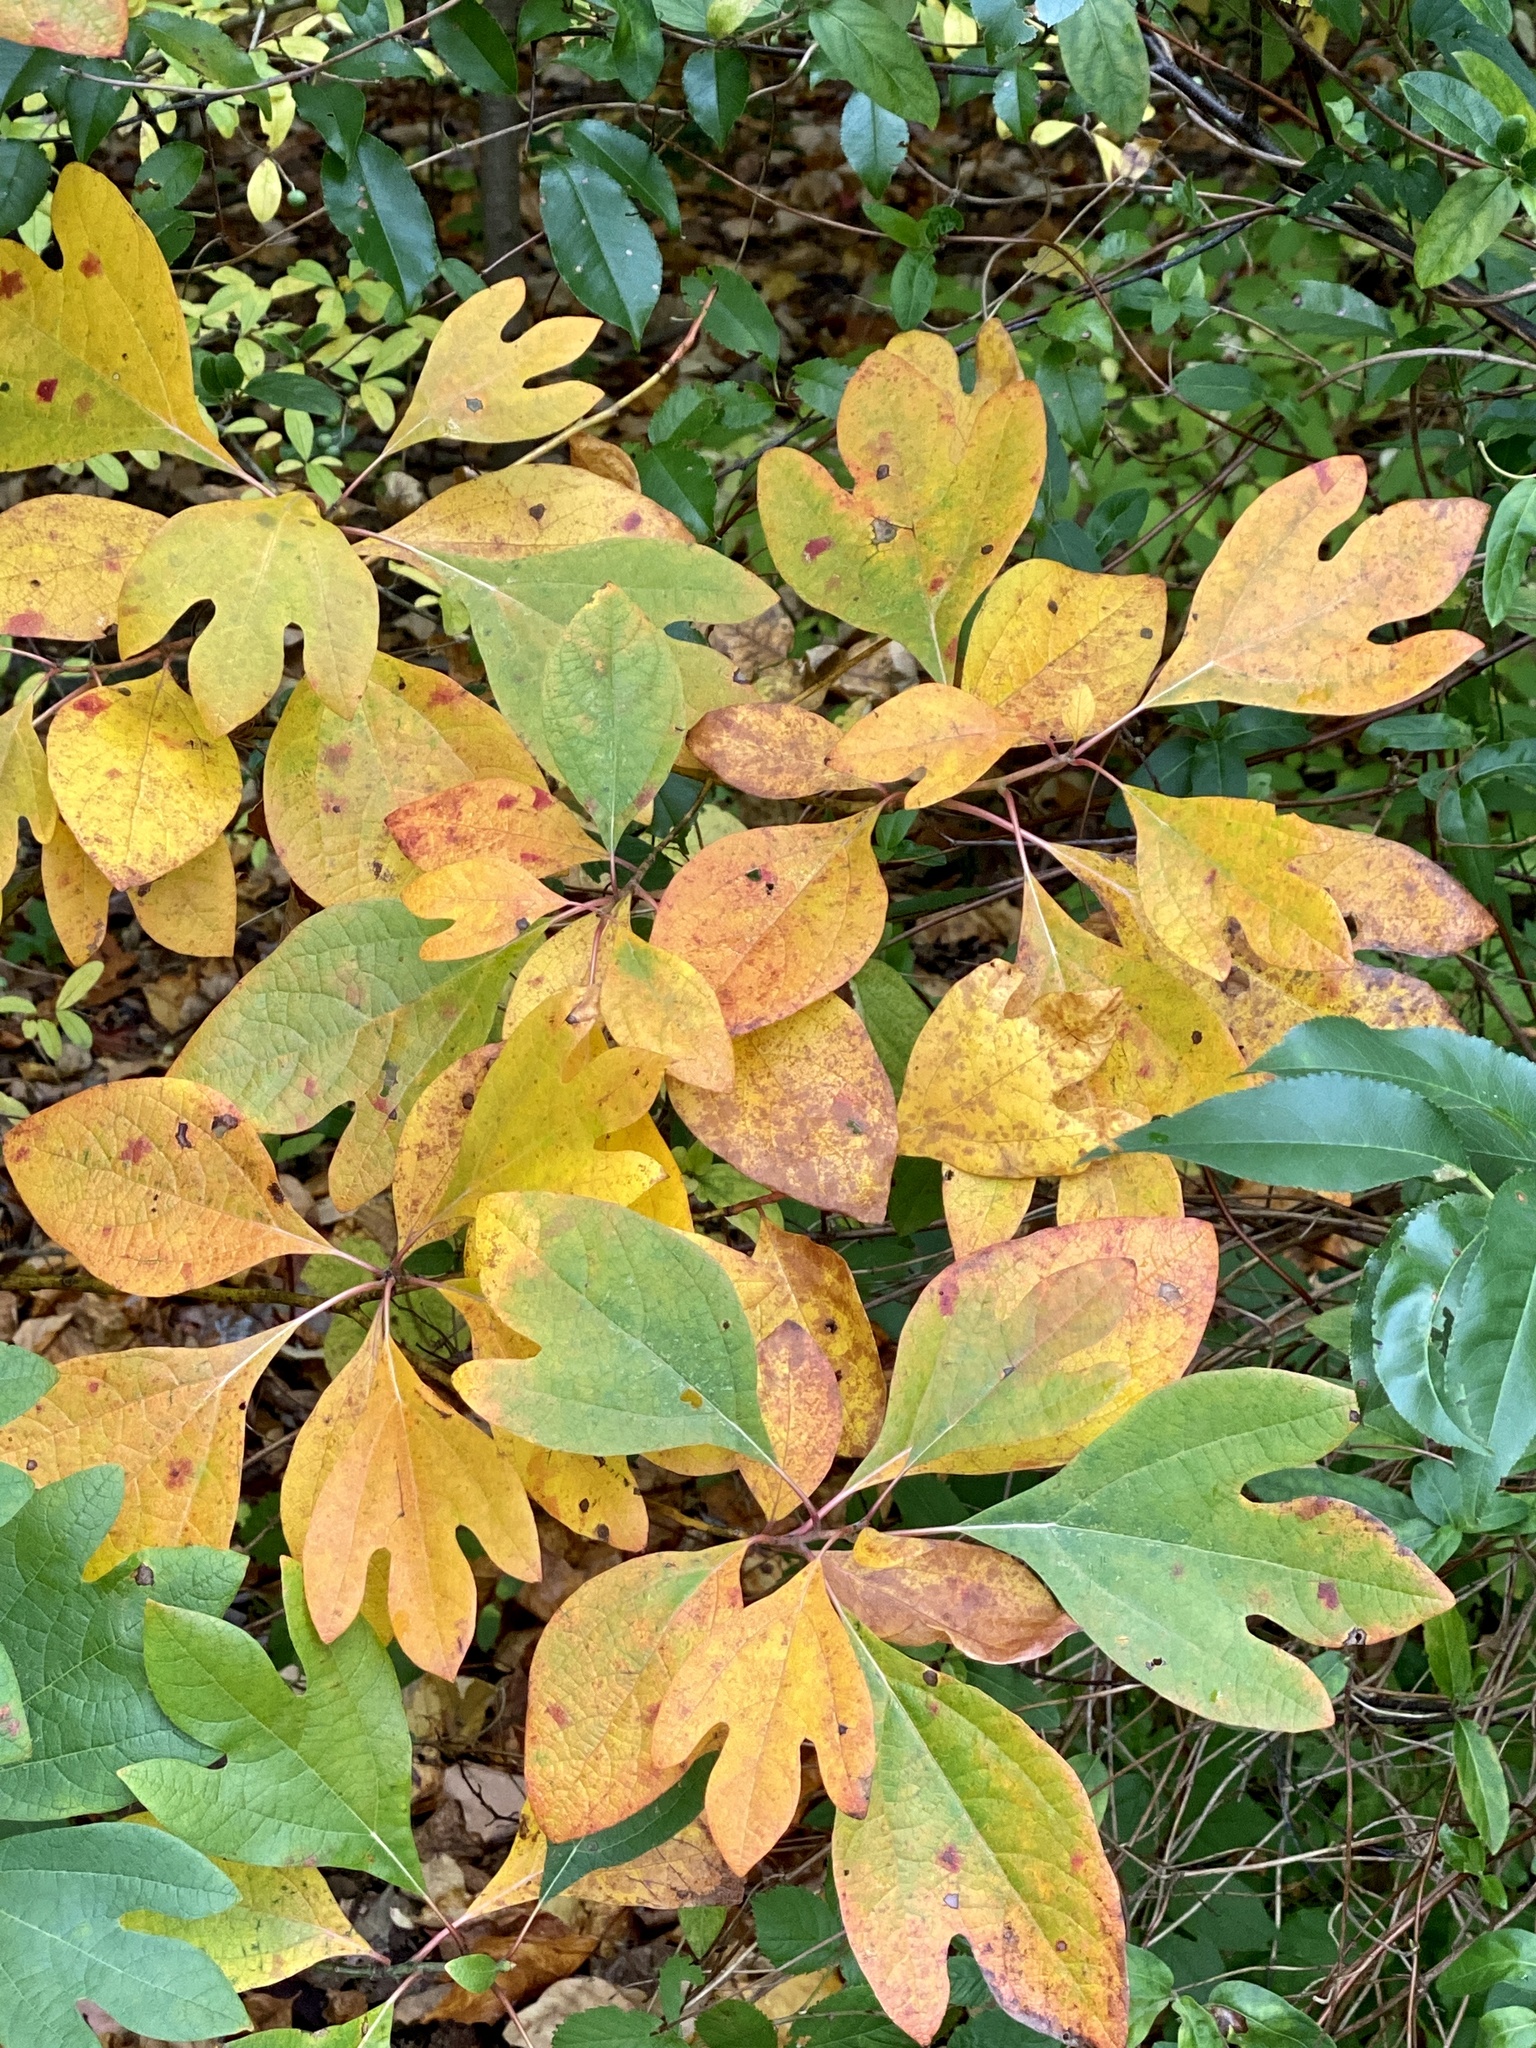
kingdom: Plantae
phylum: Tracheophyta
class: Magnoliopsida
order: Laurales
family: Lauraceae
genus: Sassafras
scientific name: Sassafras albidum
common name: Sassafras
